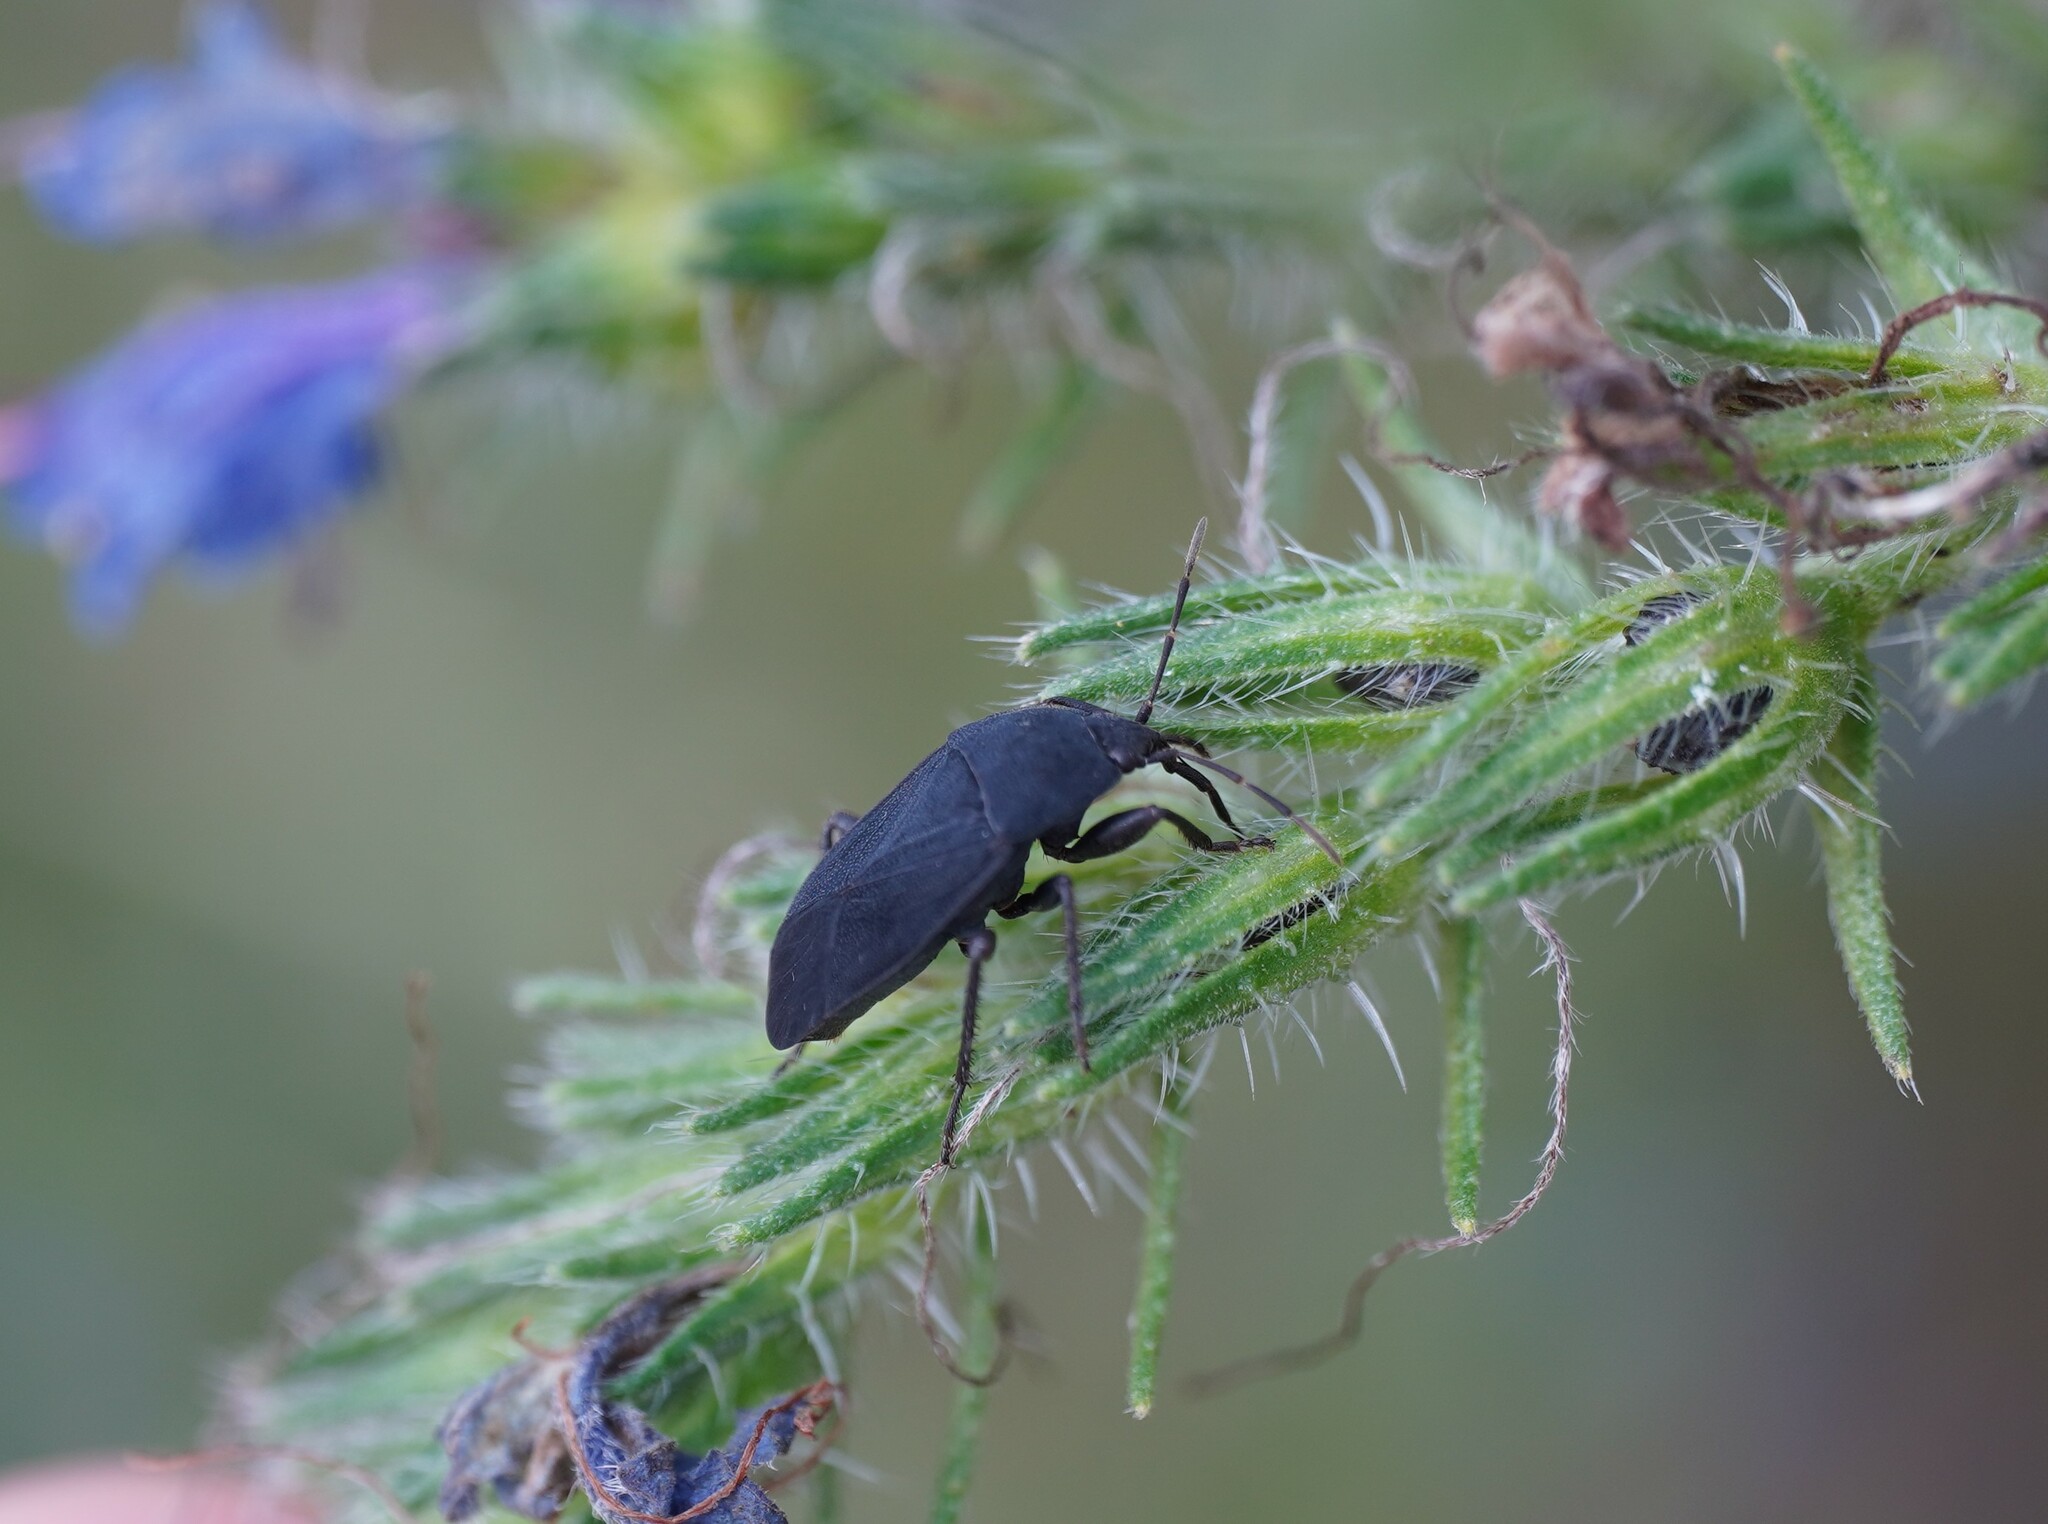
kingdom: Animalia
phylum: Arthropoda
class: Insecta
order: Hemiptera
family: Rhyparochromidae
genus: Aellopus
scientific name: Aellopus atratus
